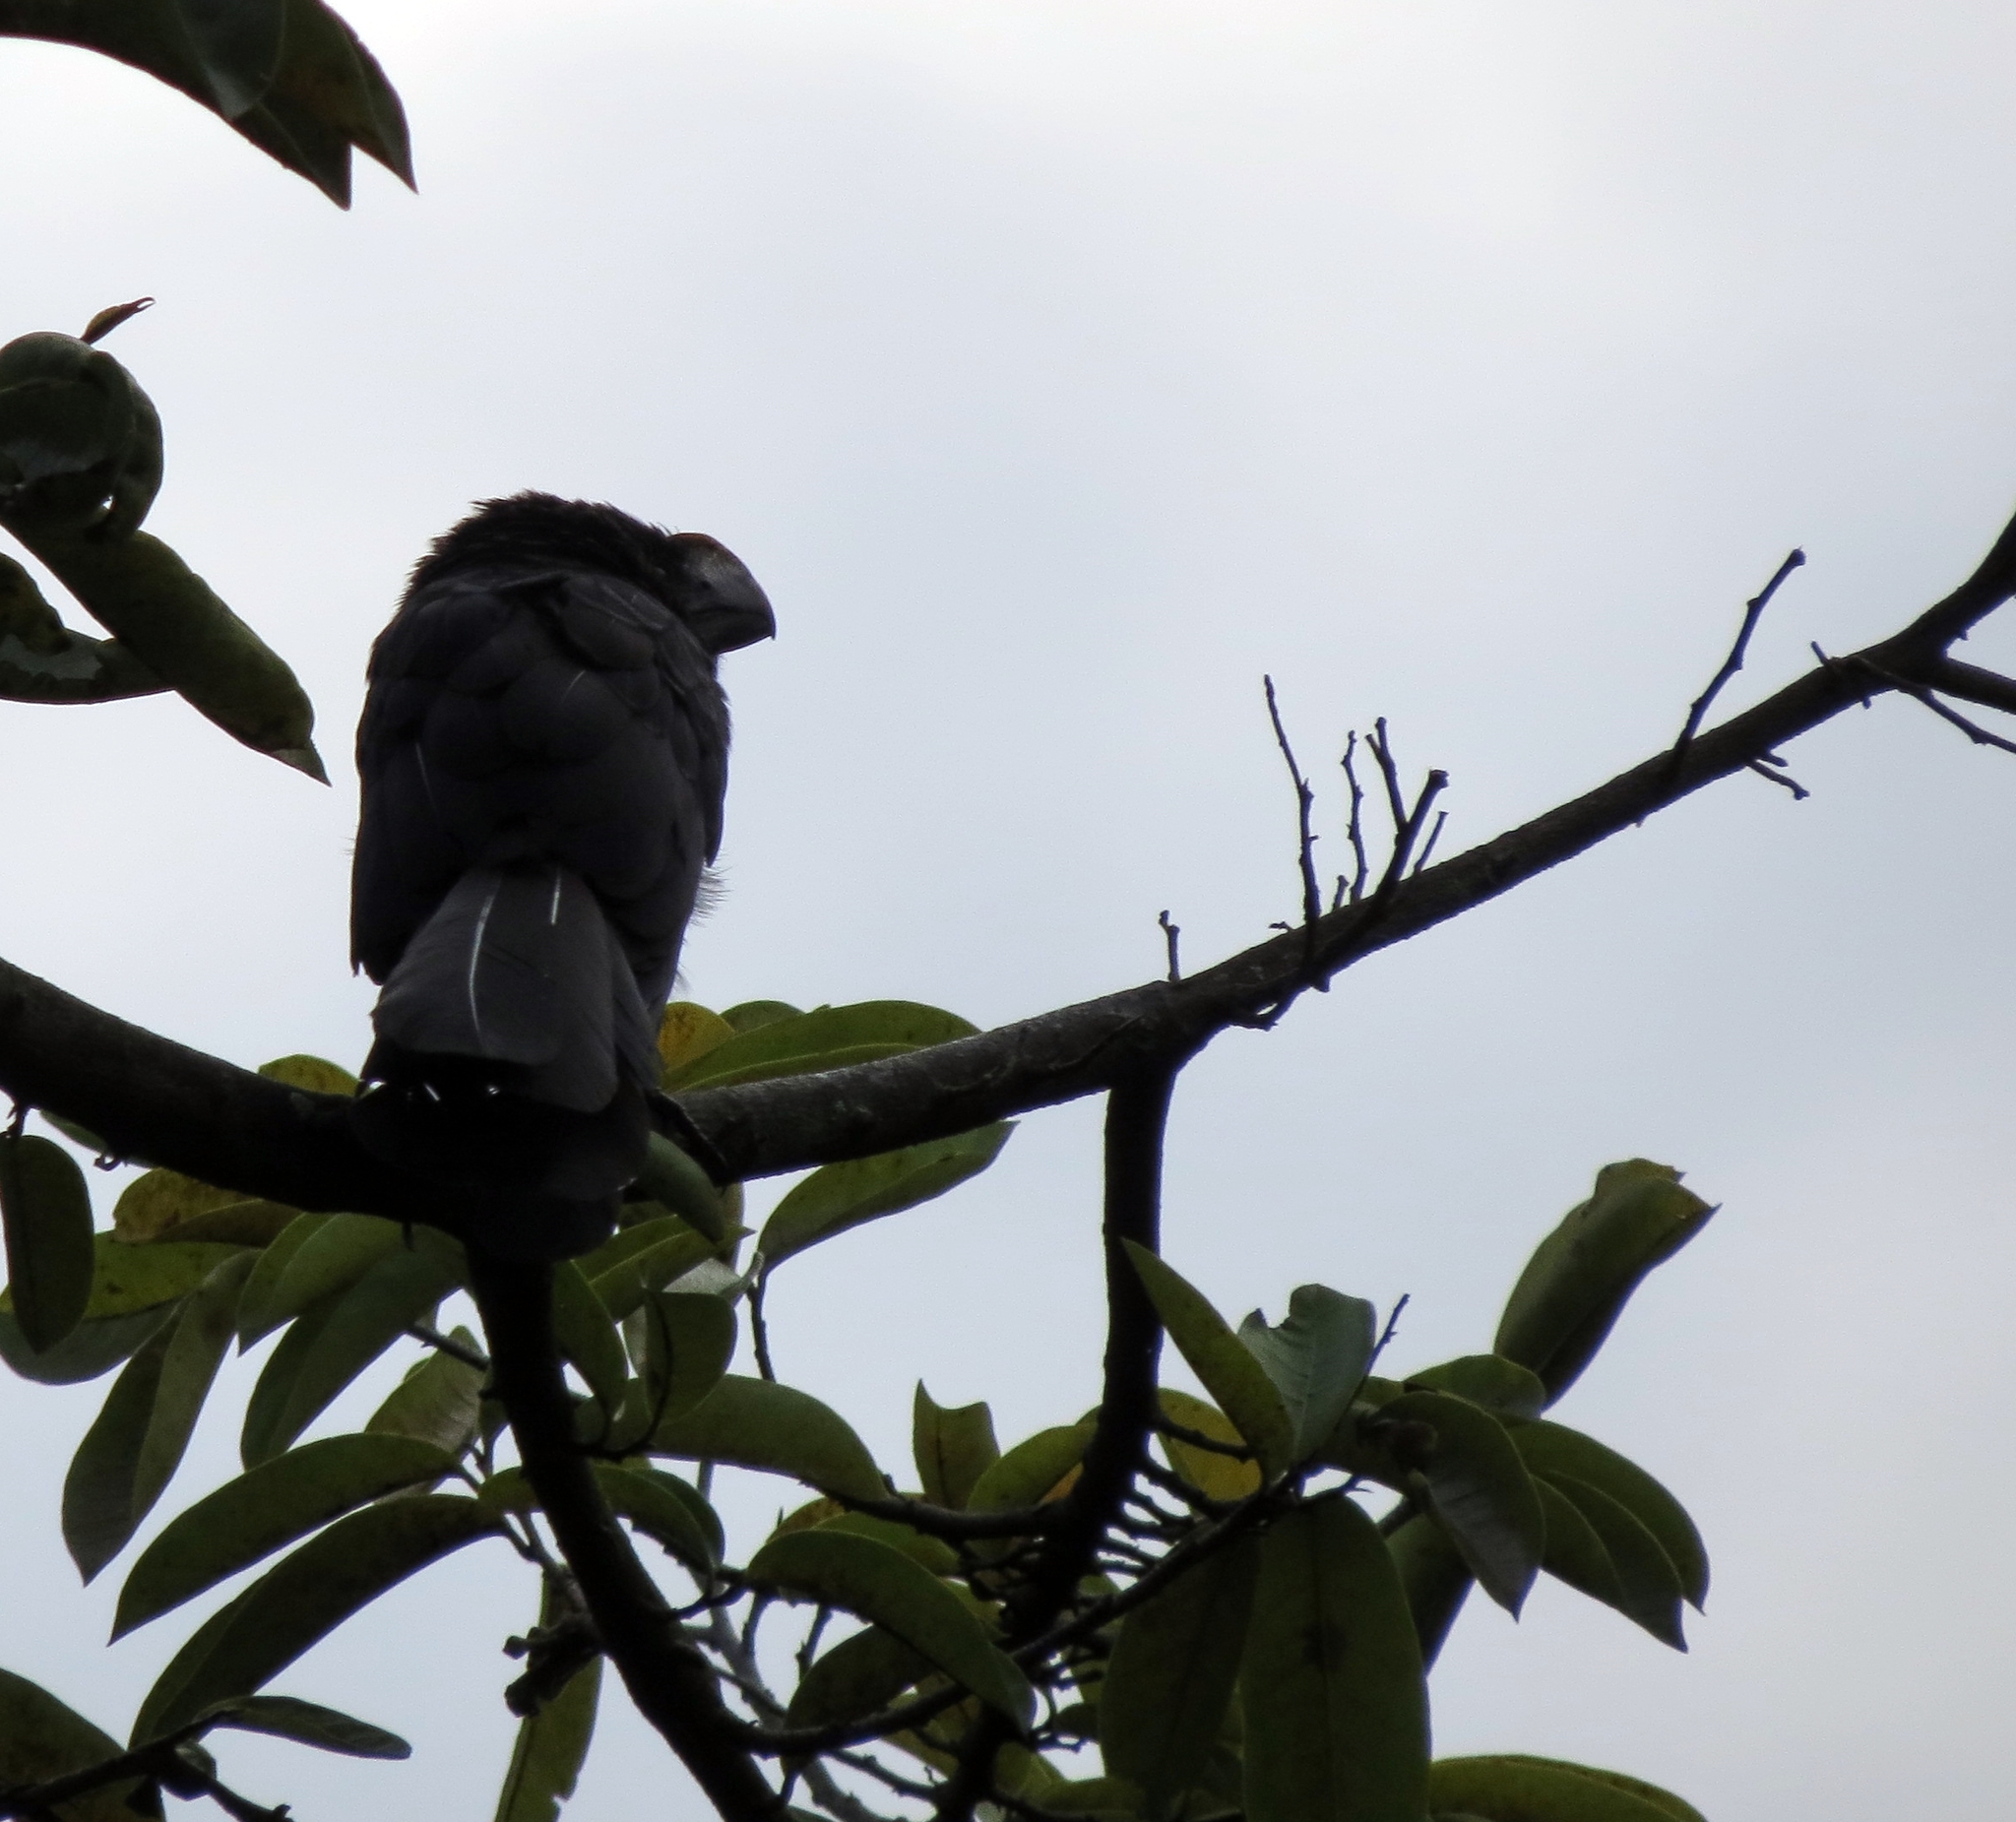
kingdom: Animalia
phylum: Chordata
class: Aves
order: Cuculiformes
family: Cuculidae
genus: Crotophaga
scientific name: Crotophaga ani
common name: Smooth-billed ani
